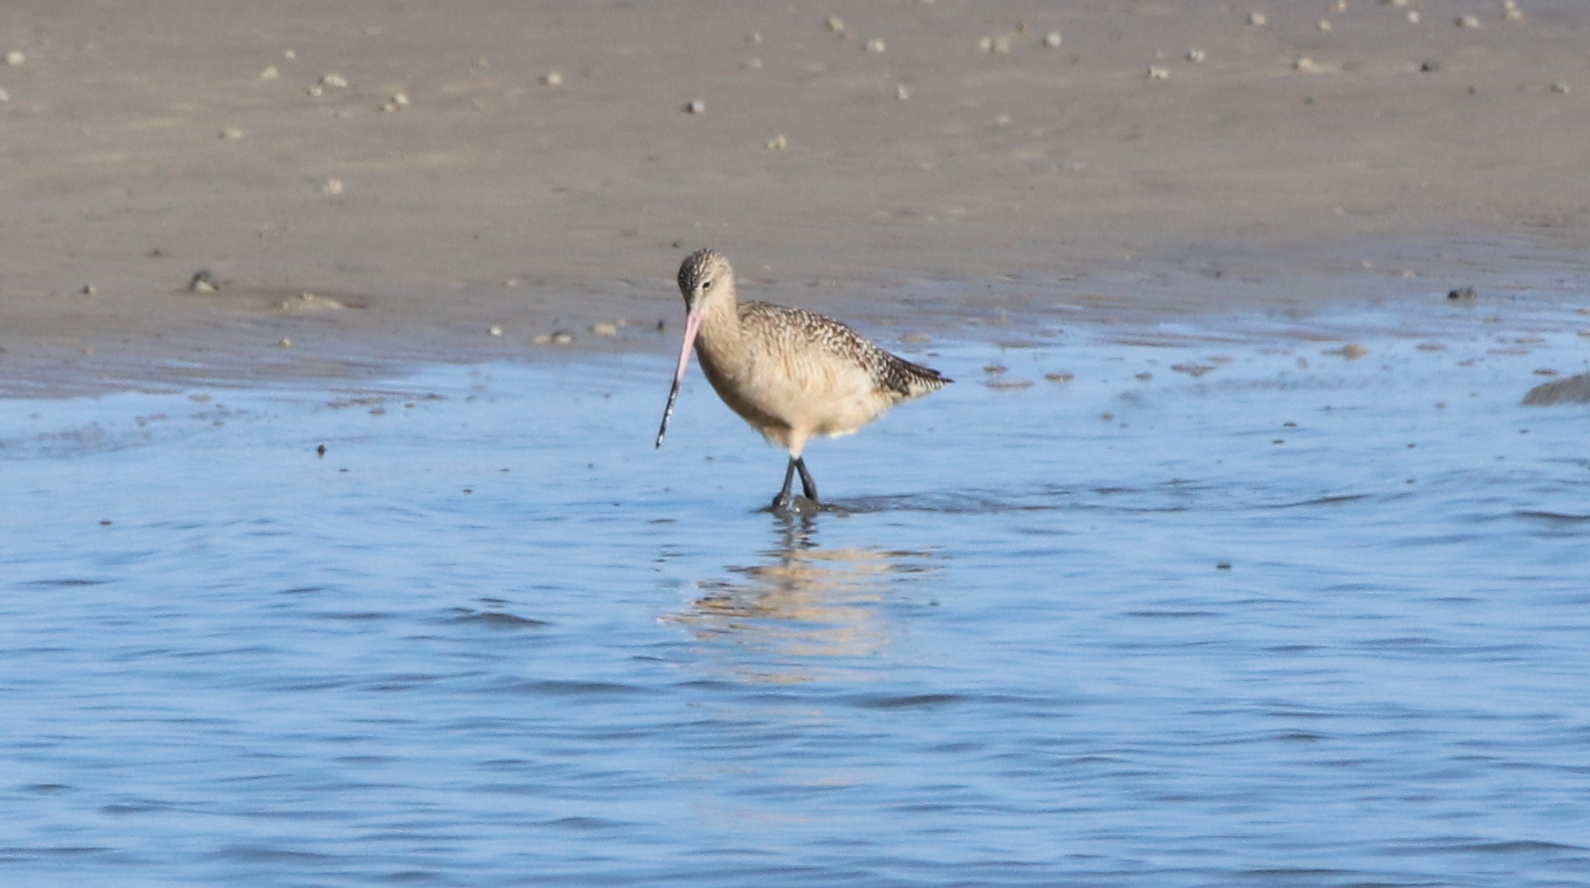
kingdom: Animalia
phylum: Chordata
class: Aves
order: Charadriiformes
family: Scolopacidae
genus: Limosa
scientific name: Limosa fedoa
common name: Marbled godwit
